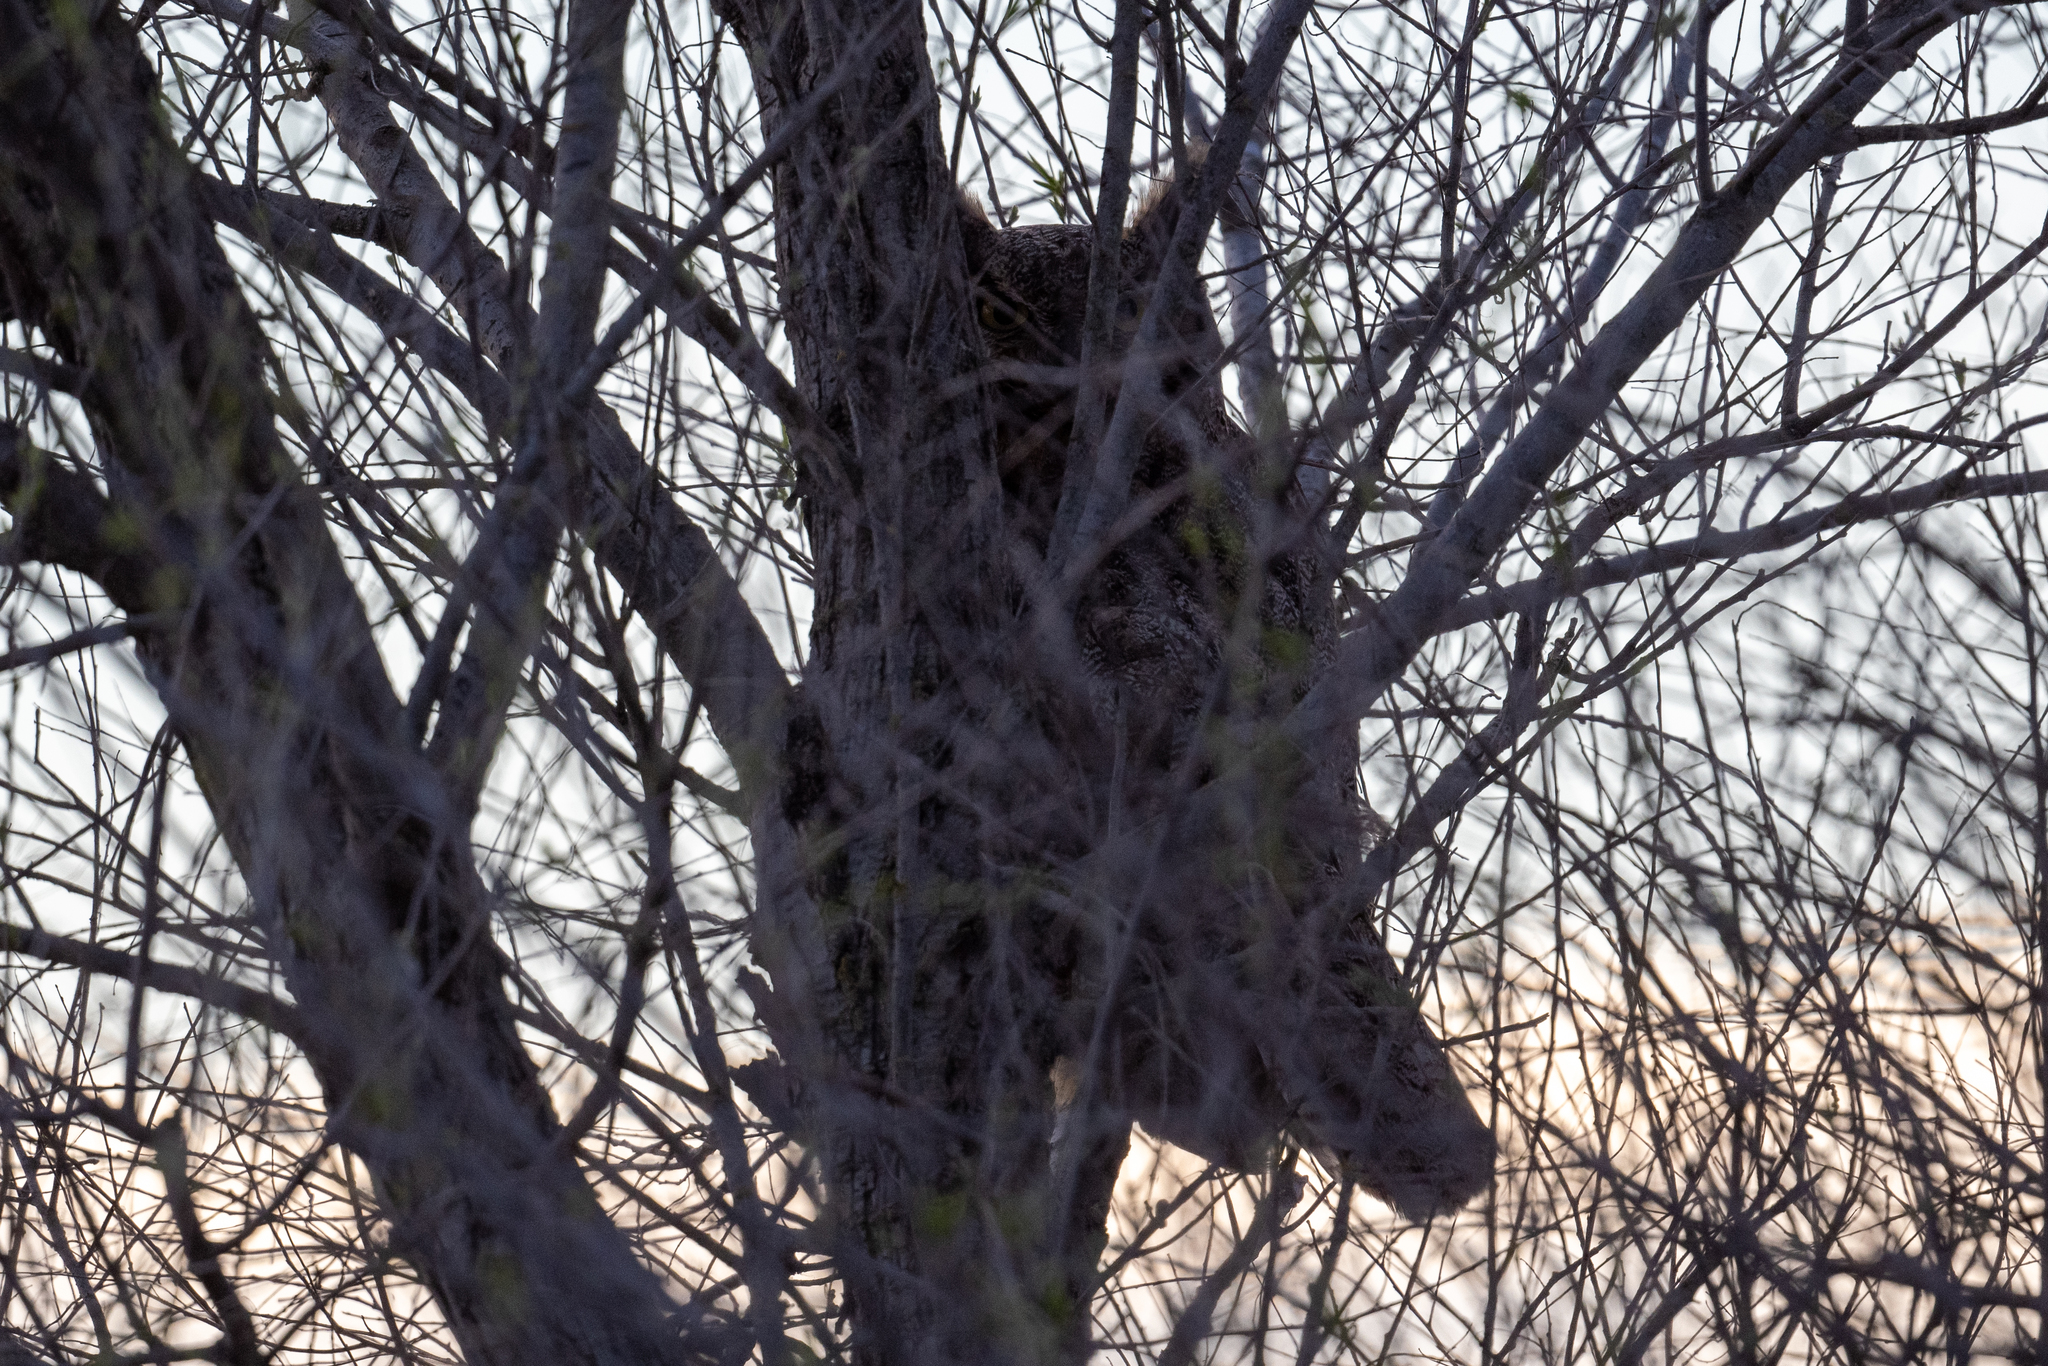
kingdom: Animalia
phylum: Chordata
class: Aves
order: Strigiformes
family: Strigidae
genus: Bubo
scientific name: Bubo virginianus
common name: Great horned owl
